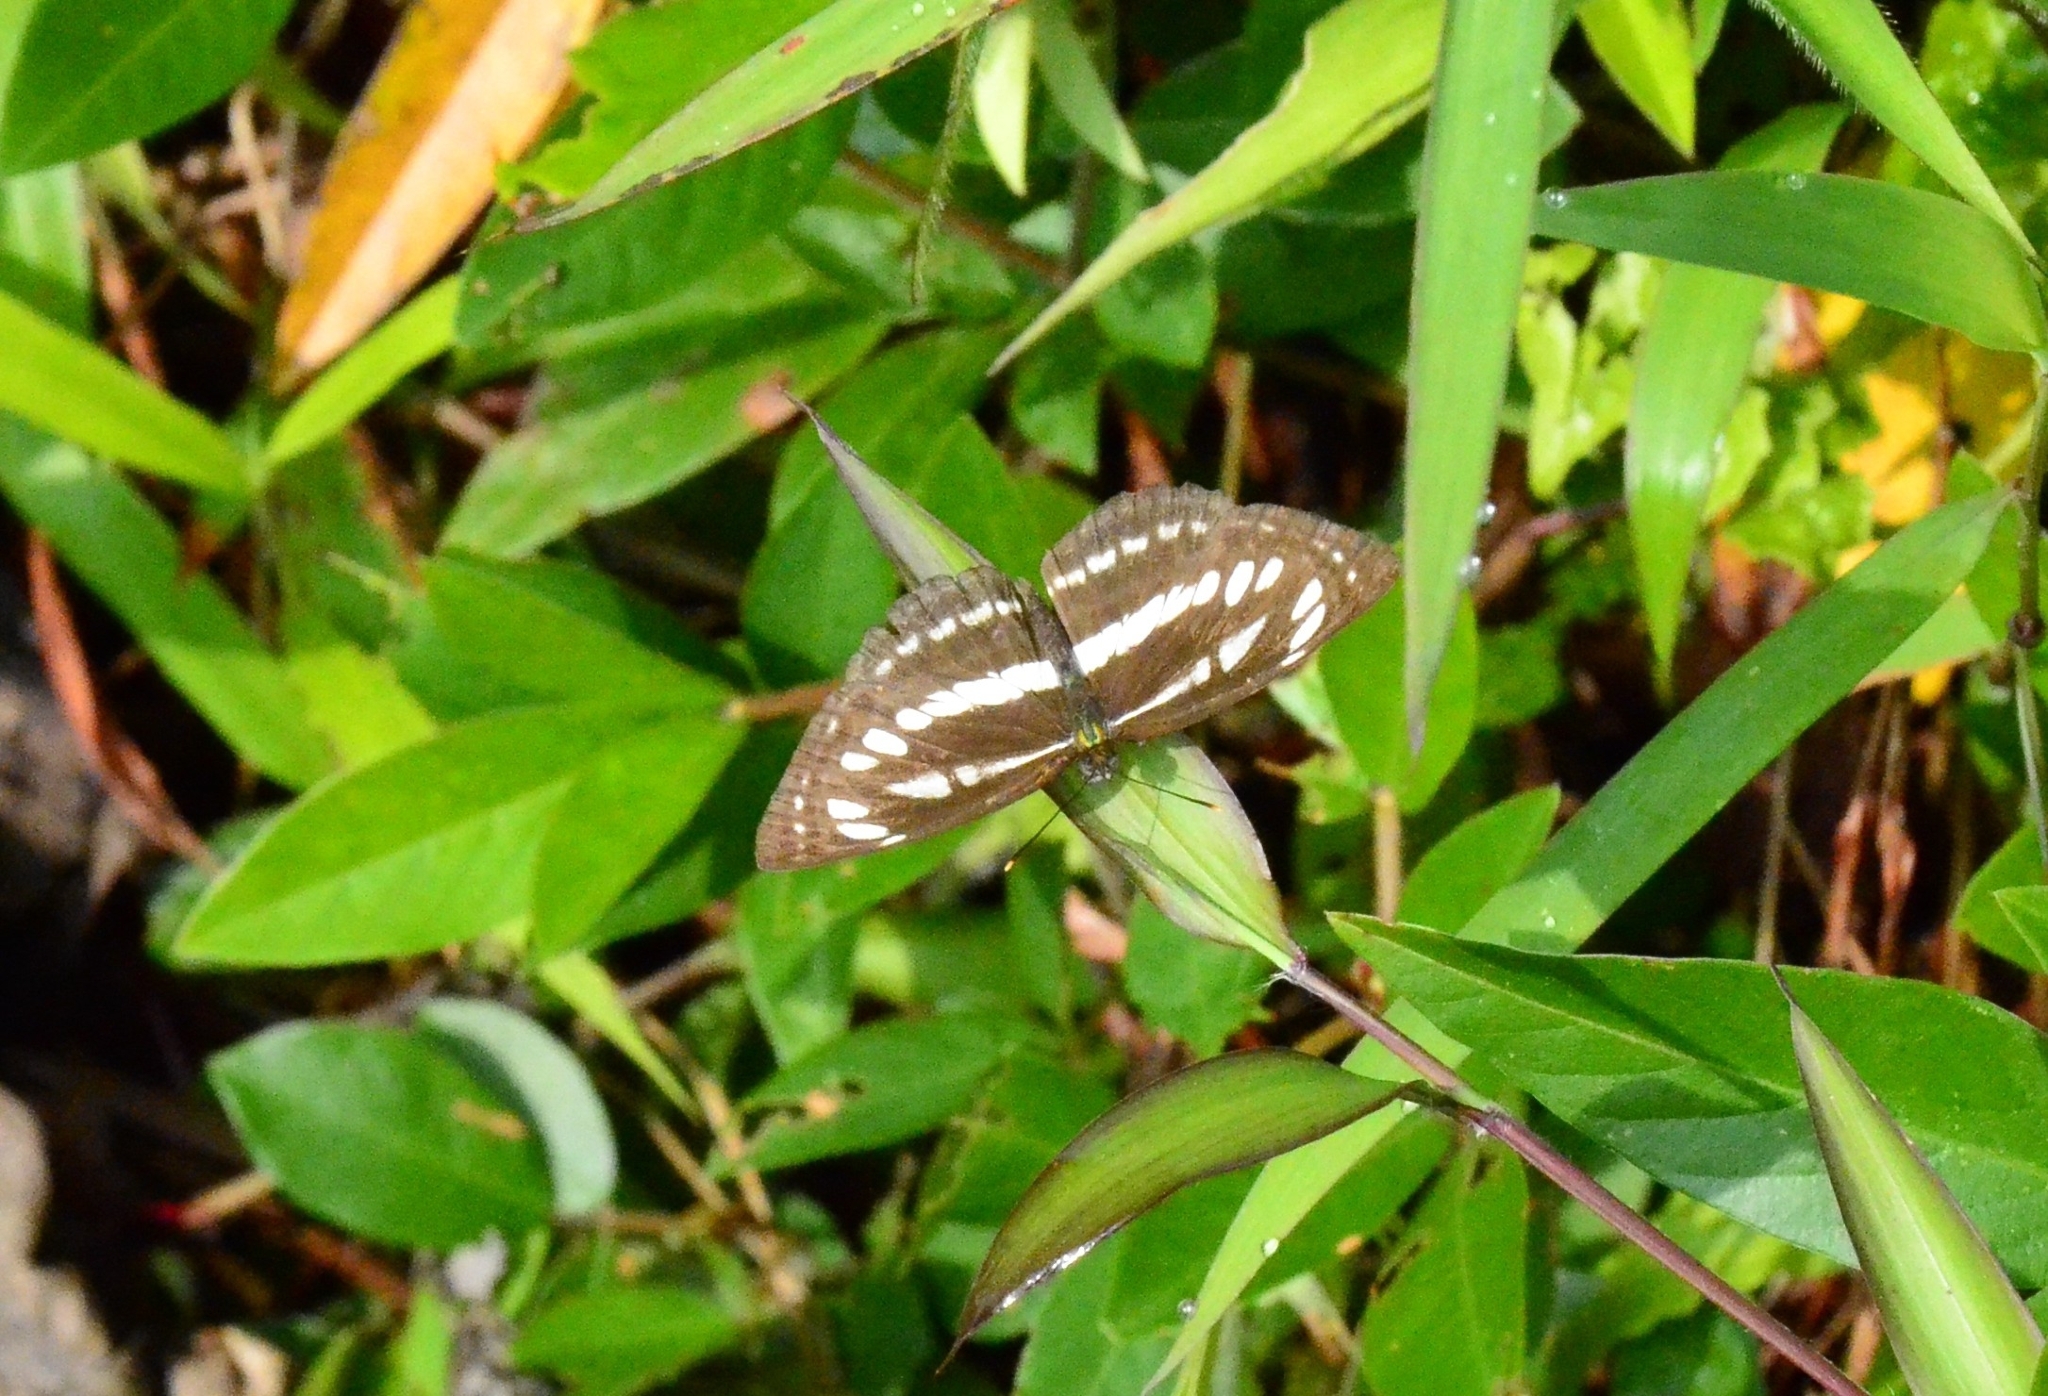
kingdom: Animalia
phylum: Arthropoda
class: Insecta
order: Lepidoptera
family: Nymphalidae
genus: Neptis
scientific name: Neptis clinia
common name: Southern sullied sailer
